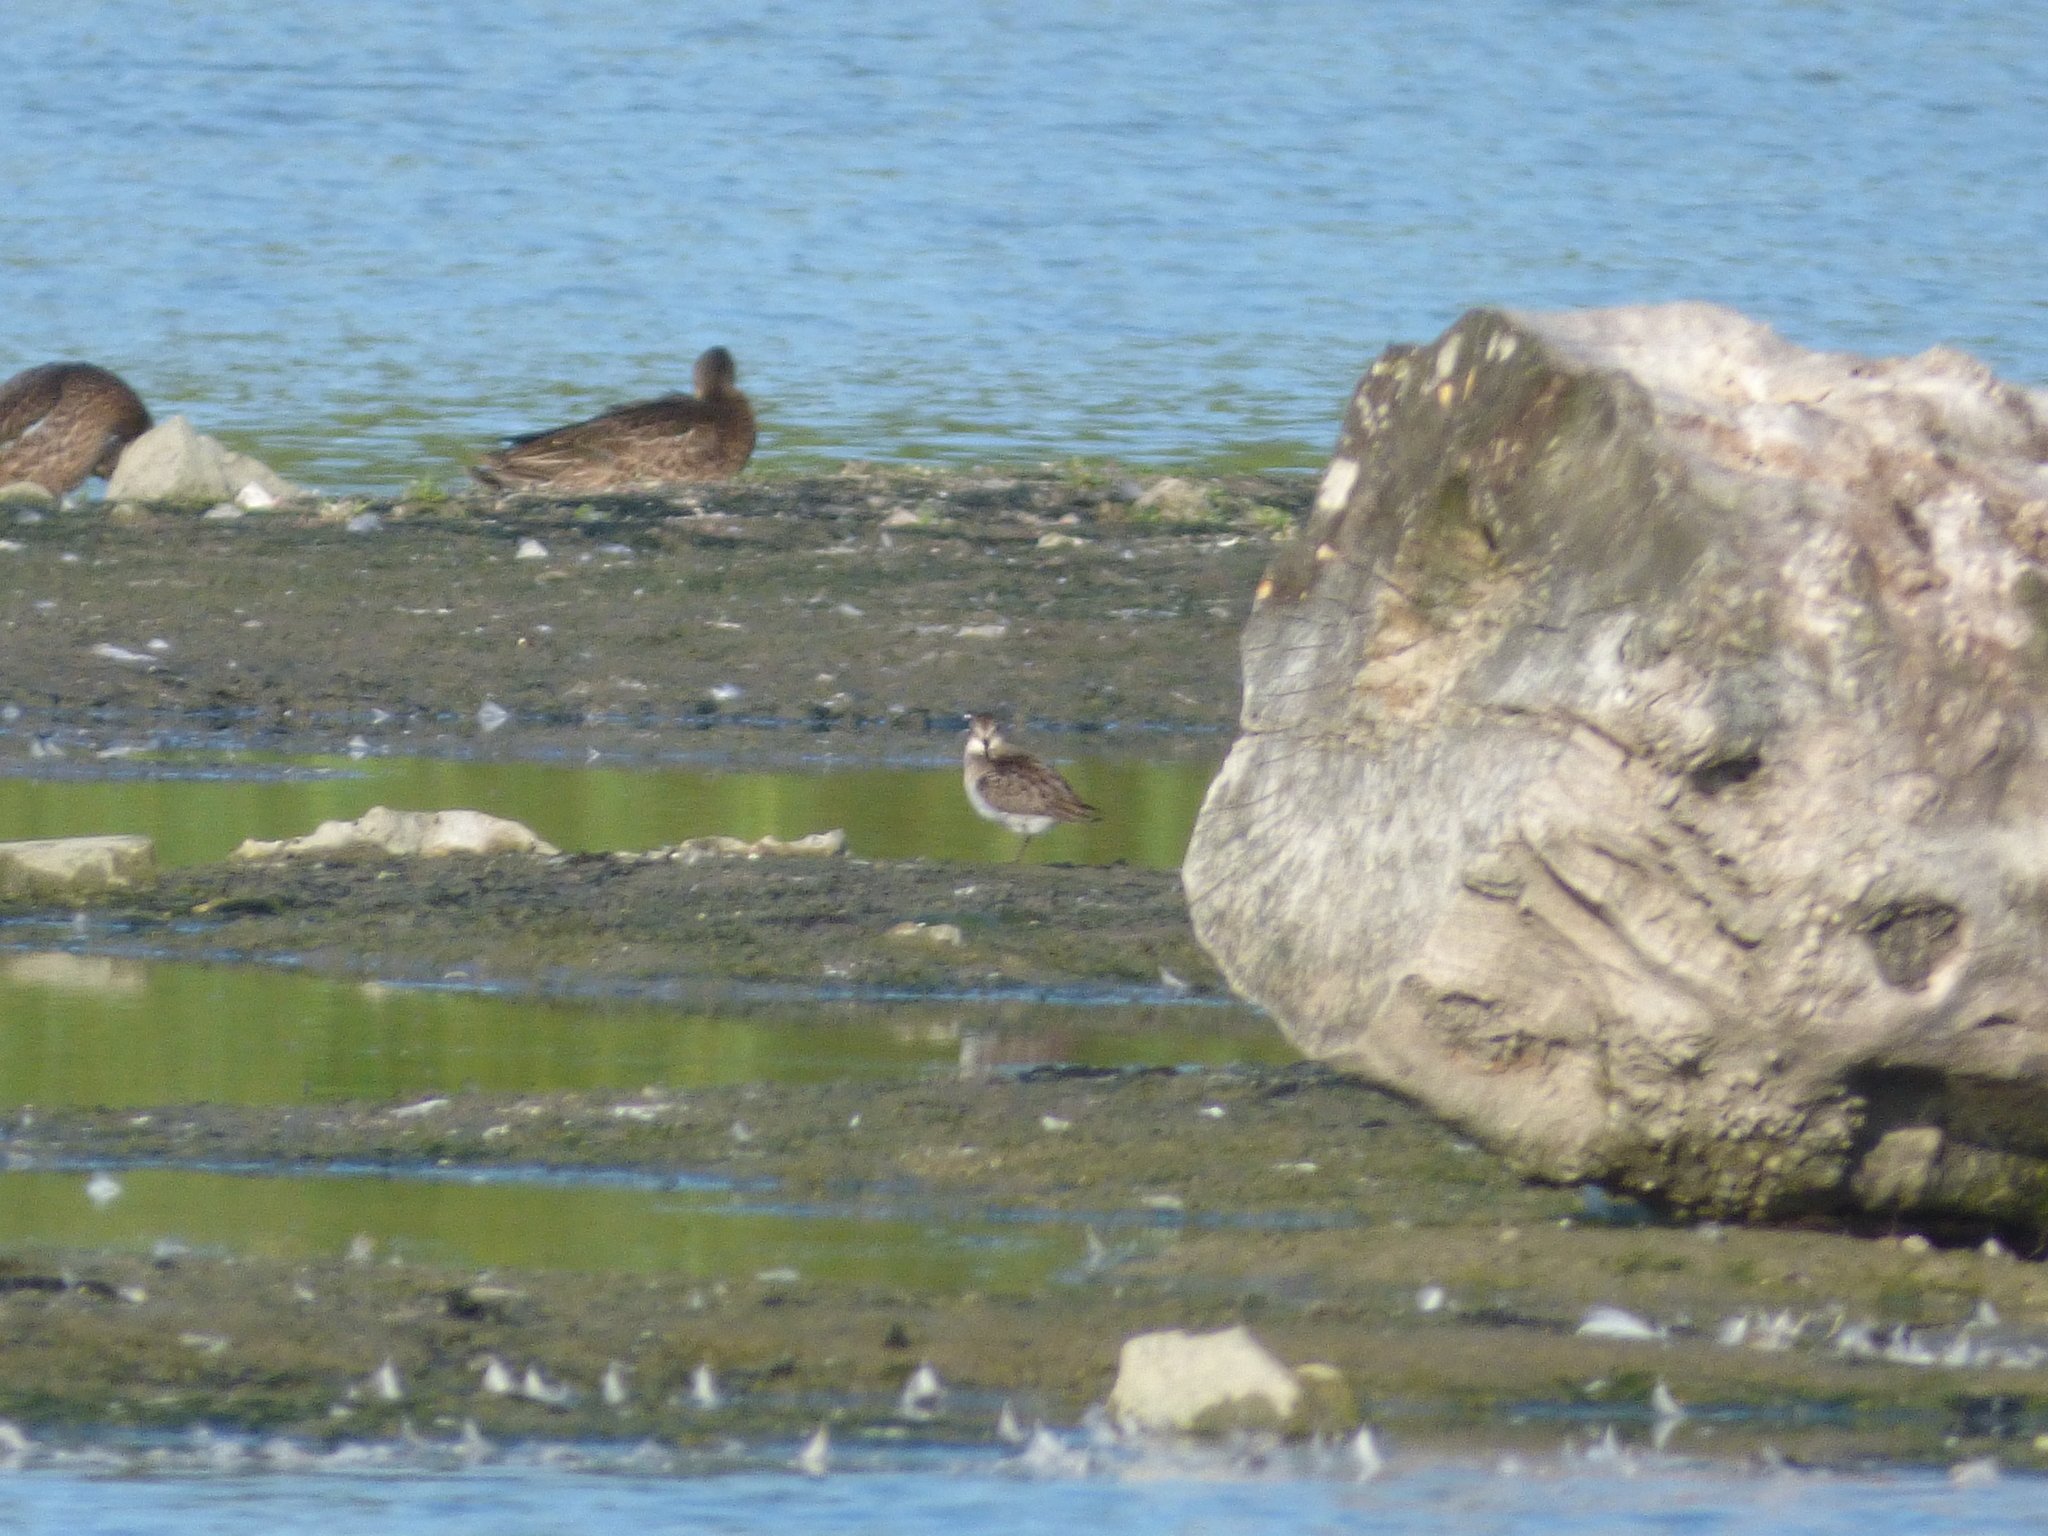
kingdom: Animalia
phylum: Chordata
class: Aves
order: Charadriiformes
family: Scolopacidae
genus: Calidris
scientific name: Calidris pusilla
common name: Semipalmated sandpiper
